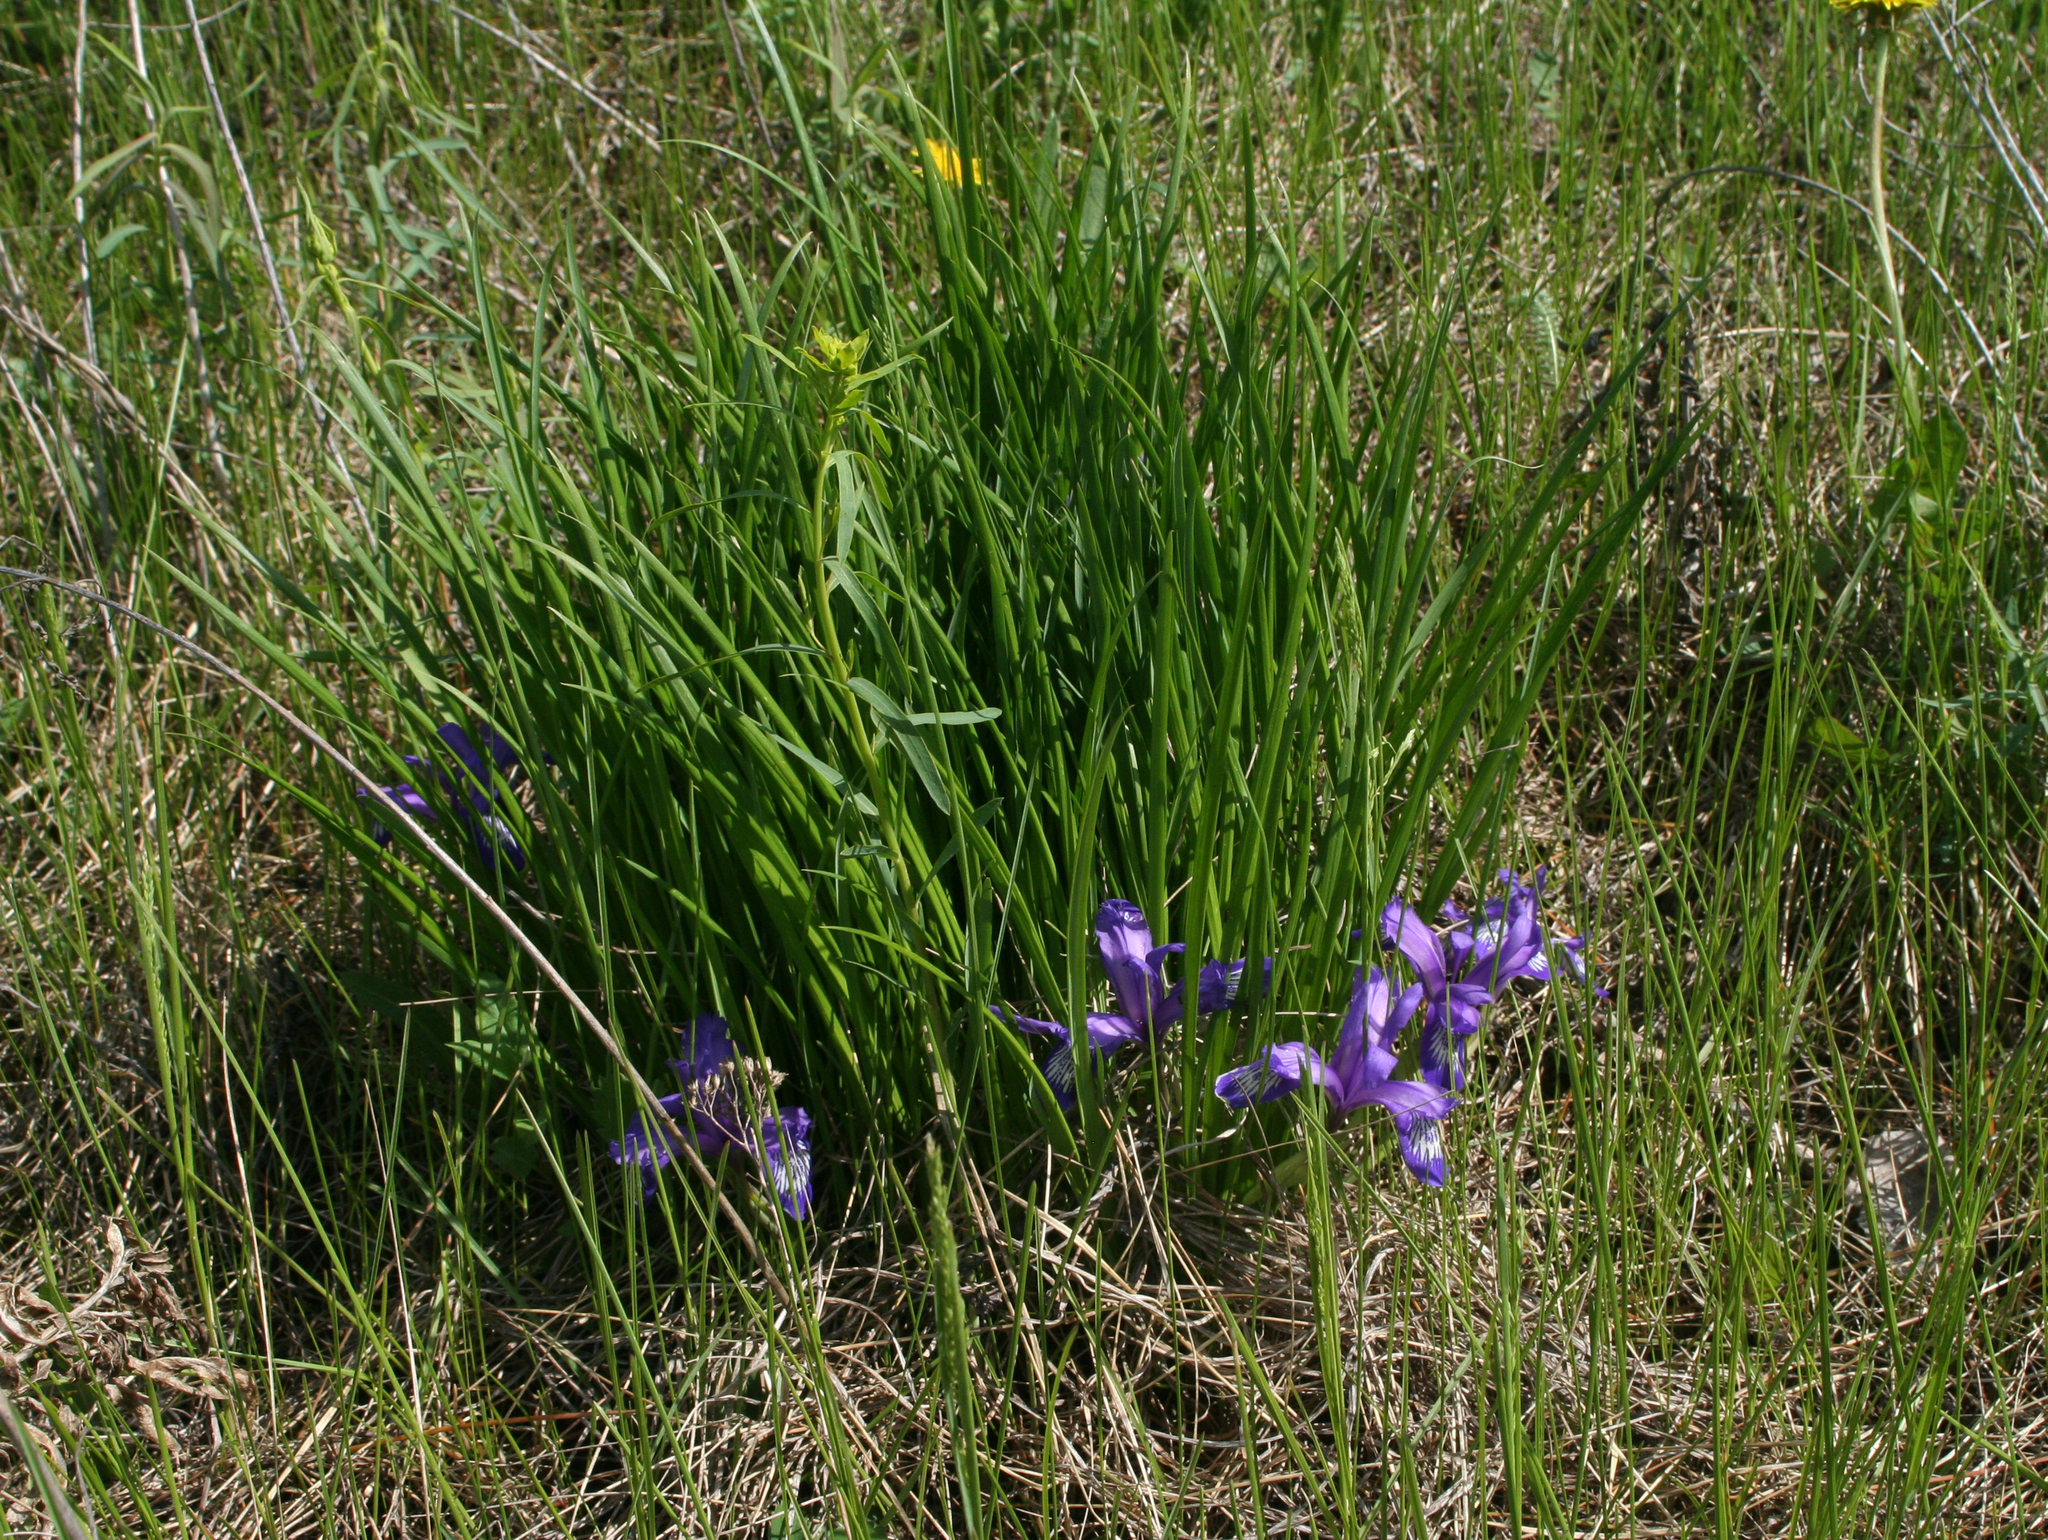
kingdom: Plantae
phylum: Tracheophyta
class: Liliopsida
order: Asparagales
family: Iridaceae
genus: Iris
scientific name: Iris ruthenica
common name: Purple-bract iris
